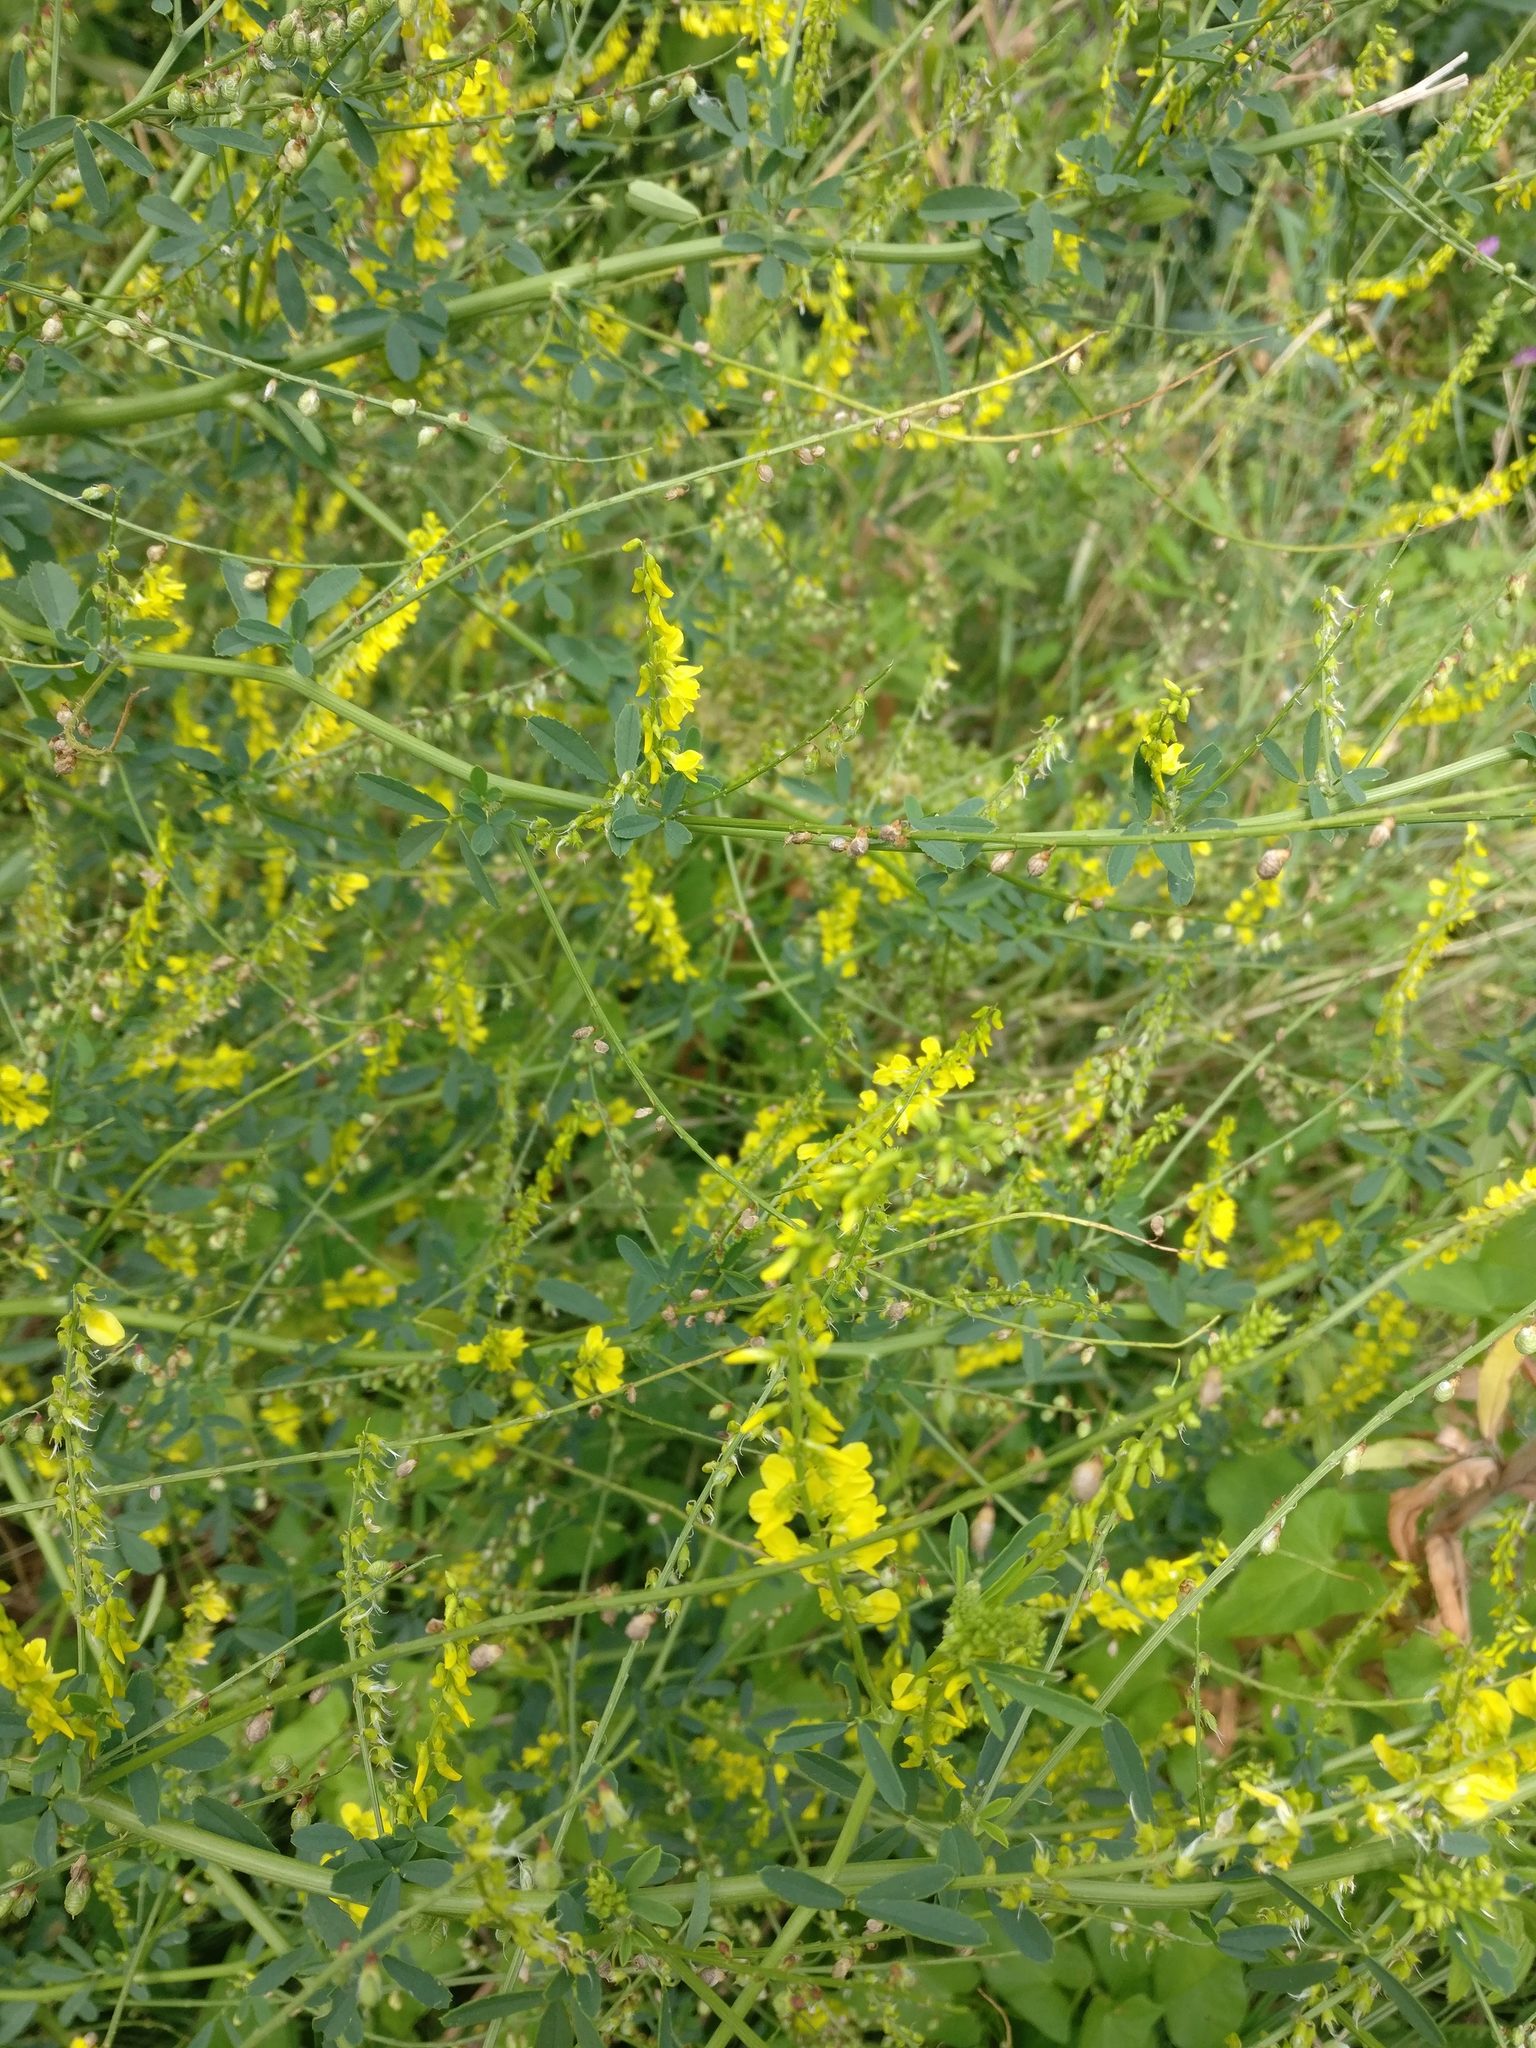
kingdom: Plantae
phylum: Tracheophyta
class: Magnoliopsida
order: Fabales
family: Fabaceae
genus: Melilotus
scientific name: Melilotus officinalis
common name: Sweetclover
